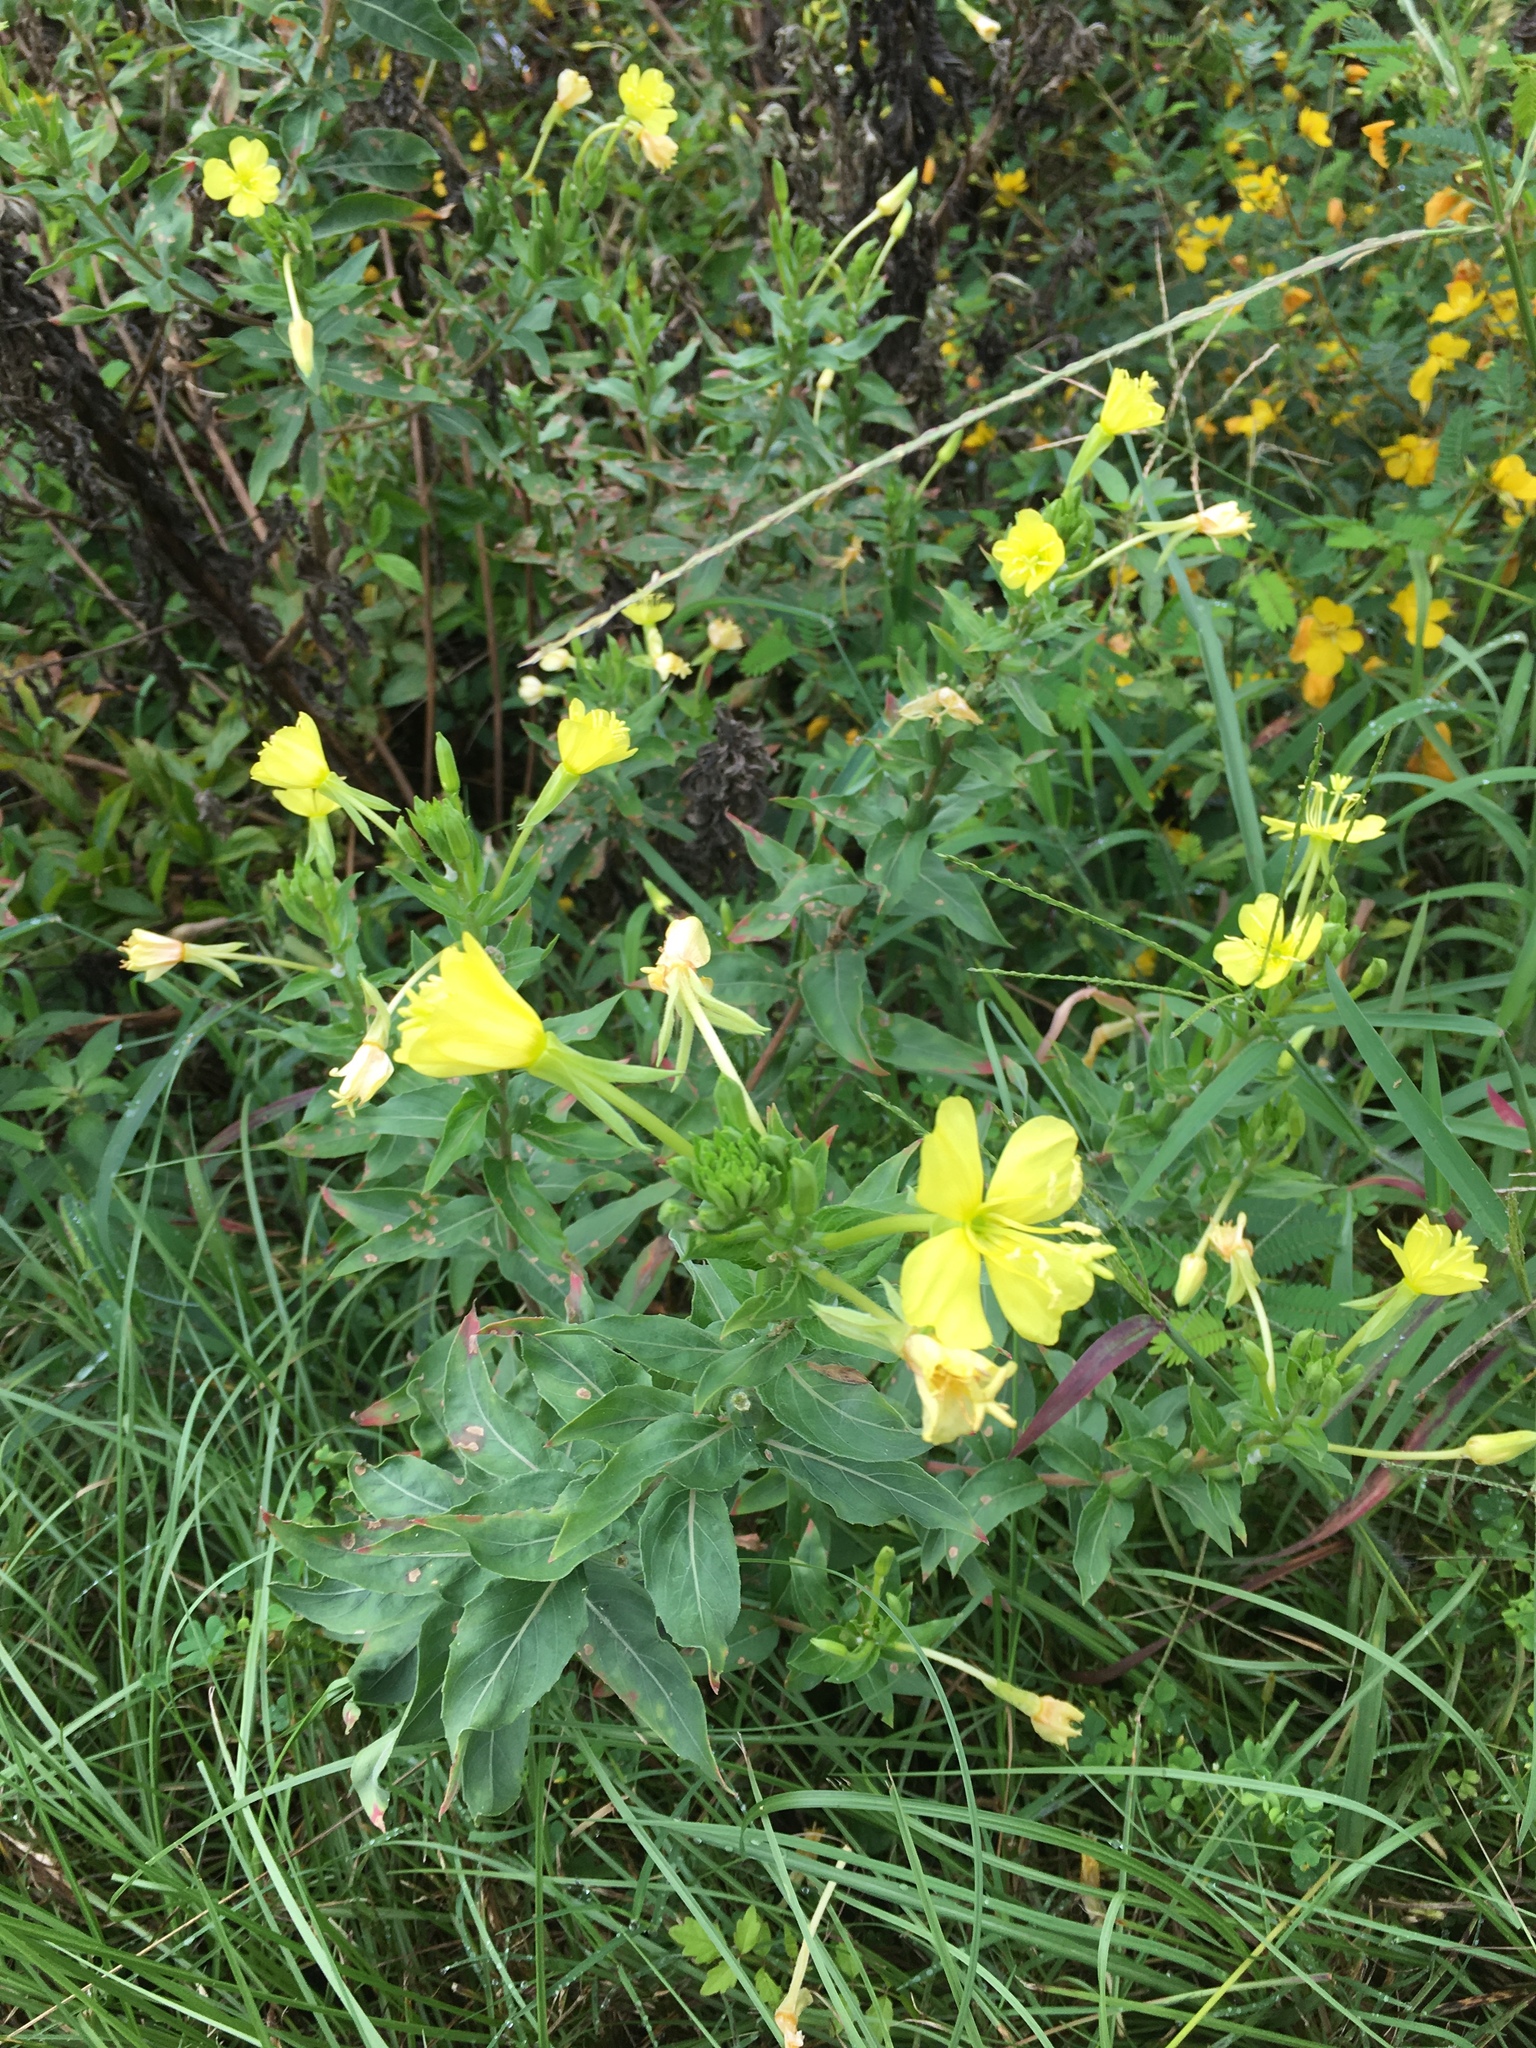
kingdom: Plantae
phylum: Tracheophyta
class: Magnoliopsida
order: Myrtales
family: Onagraceae
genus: Oenothera
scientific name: Oenothera biennis
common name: Common evening-primrose
